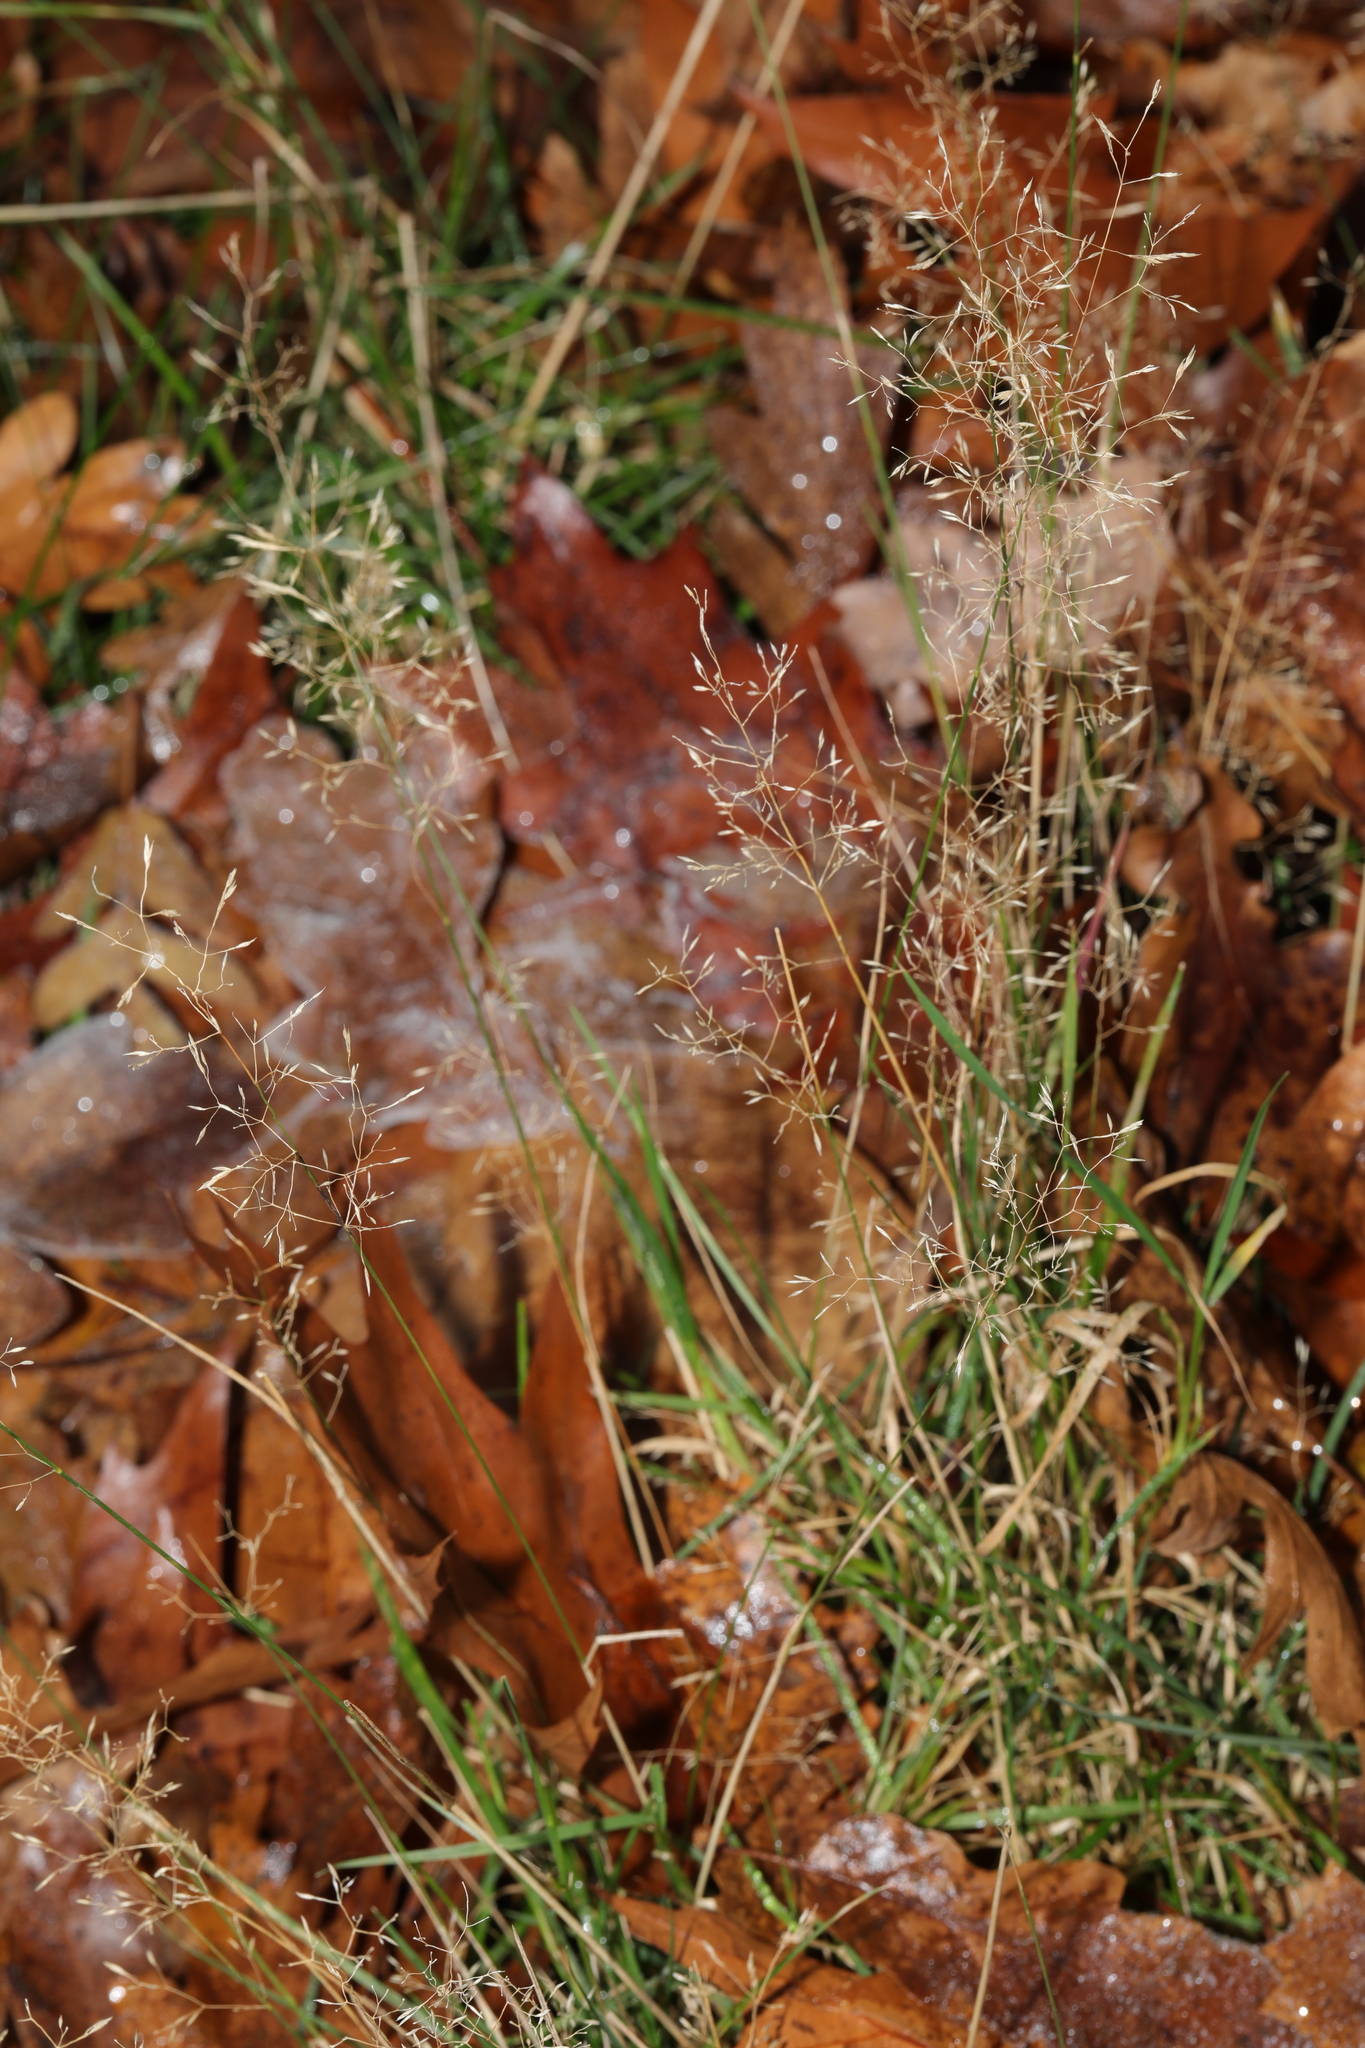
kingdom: Plantae
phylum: Tracheophyta
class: Liliopsida
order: Poales
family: Poaceae
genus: Agrostis
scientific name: Agrostis capillaris
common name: Colonial bentgrass
